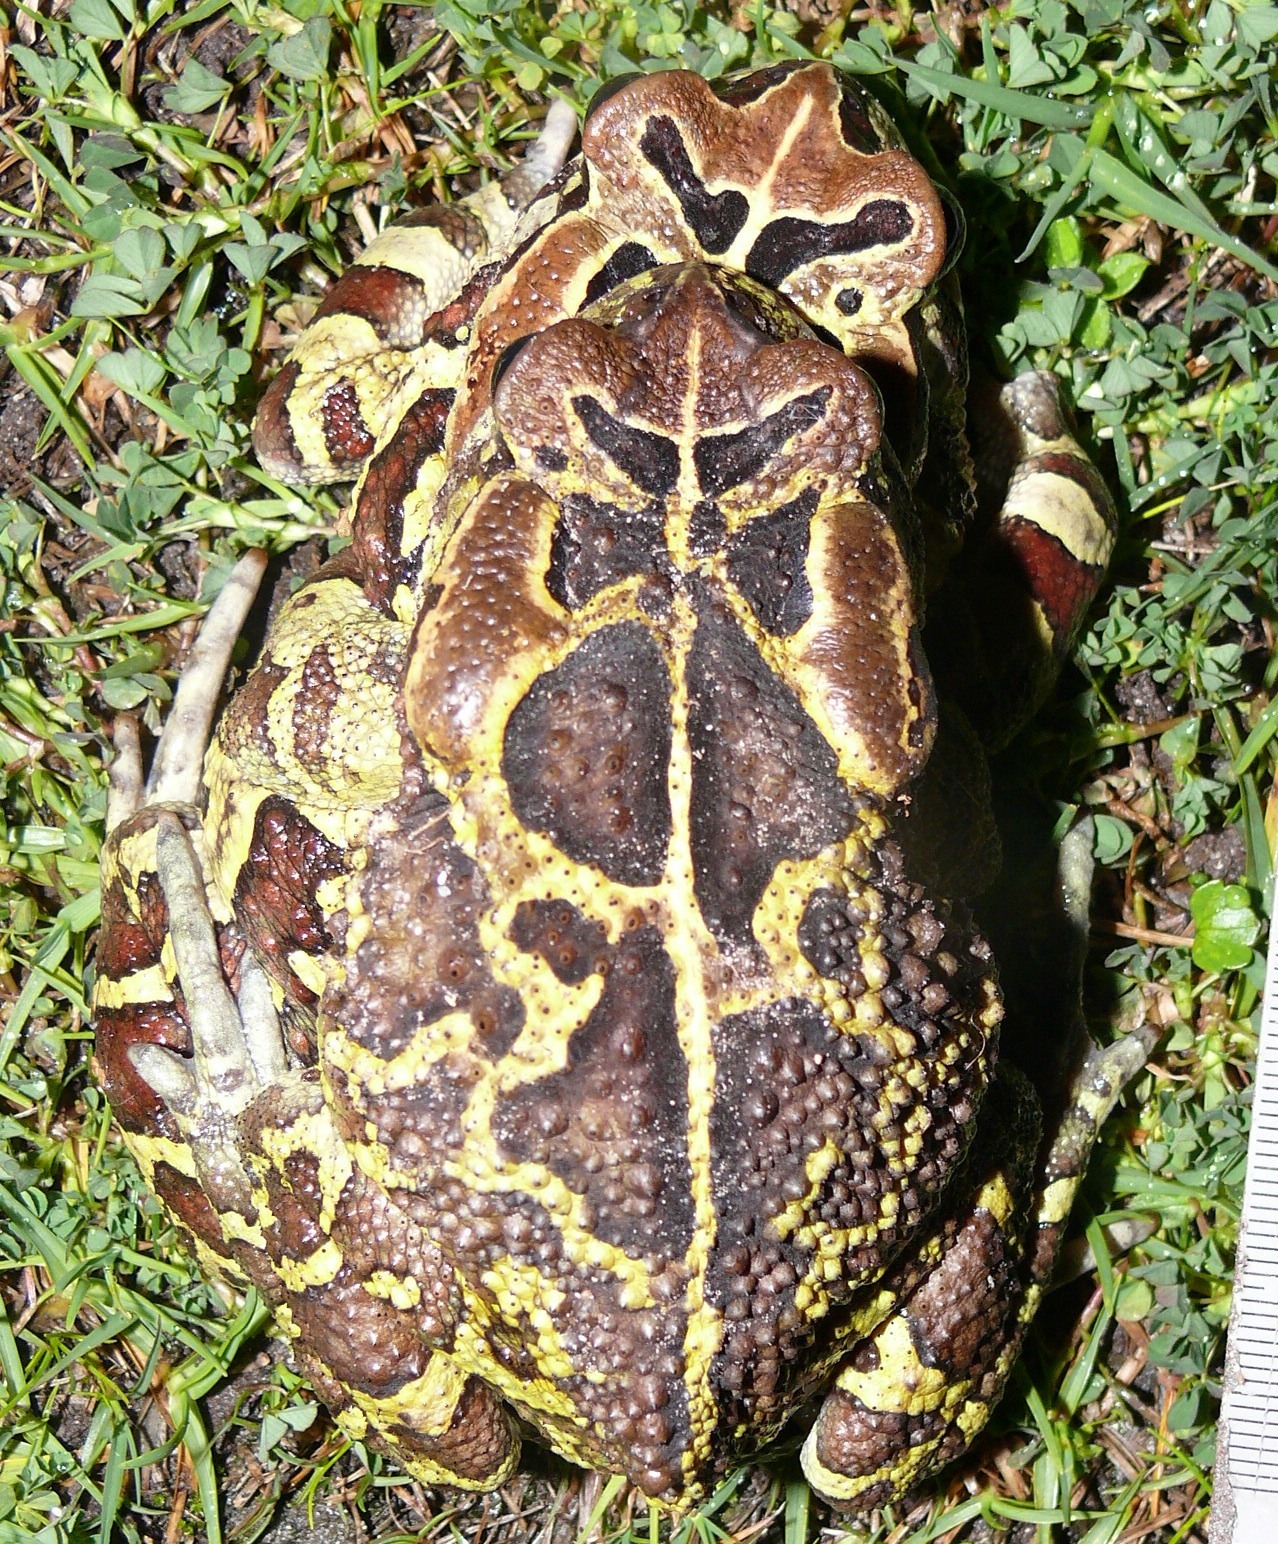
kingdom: Animalia
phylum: Chordata
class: Amphibia
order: Anura
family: Bufonidae
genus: Sclerophrys
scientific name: Sclerophrys pantherina
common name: Panther toad
